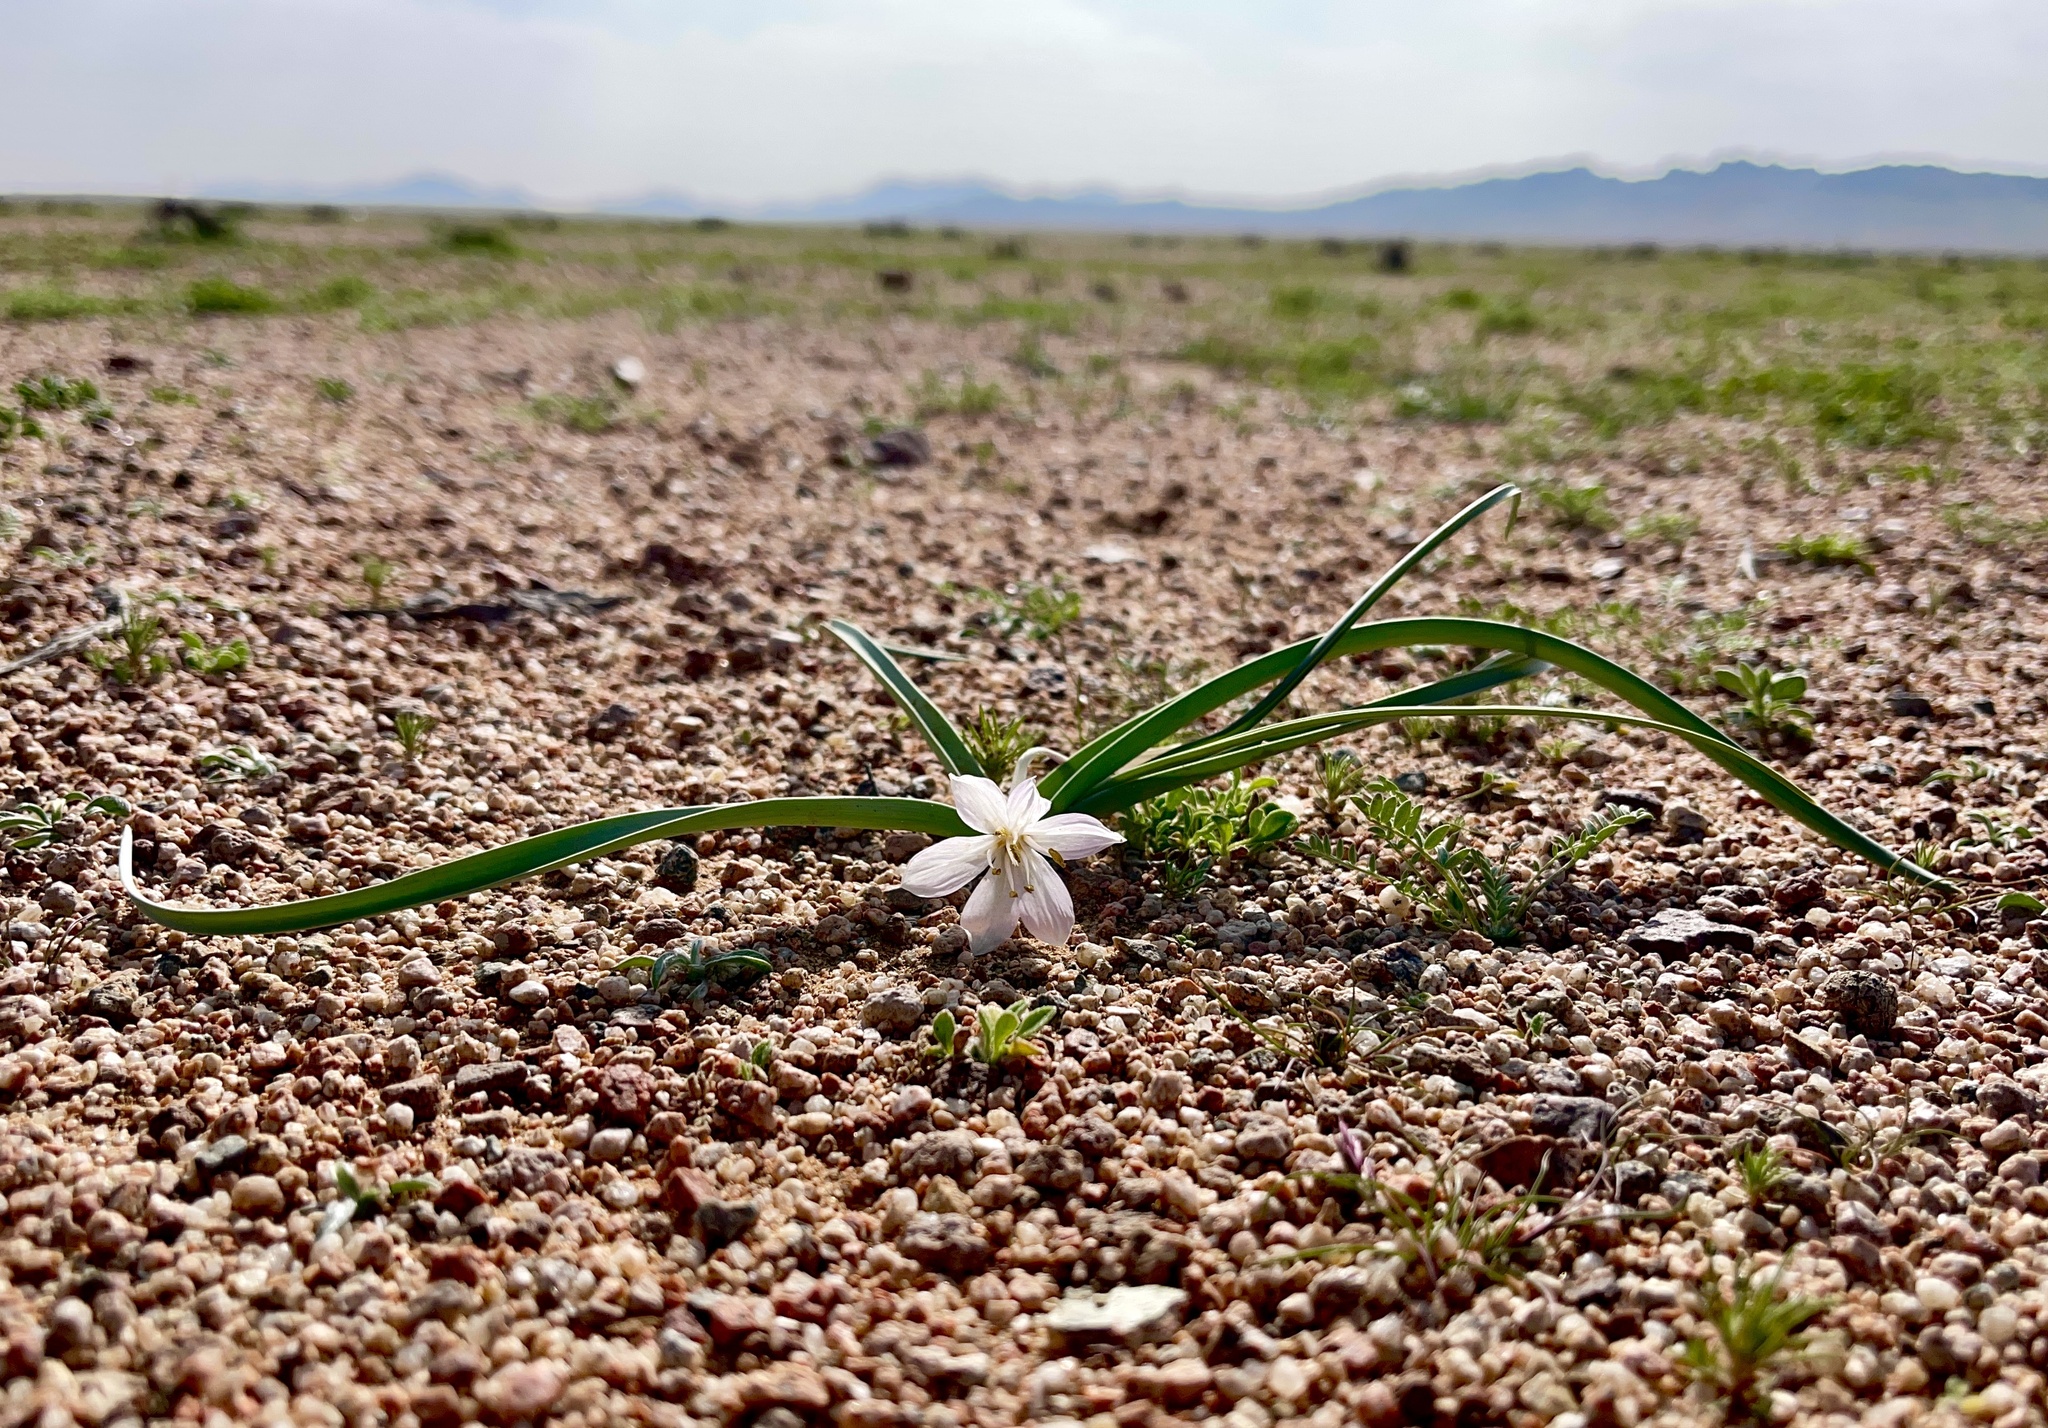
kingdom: Plantae
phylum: Tracheophyta
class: Liliopsida
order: Liliales
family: Colchicaceae
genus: Colchicum
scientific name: Colchicum ritchii
